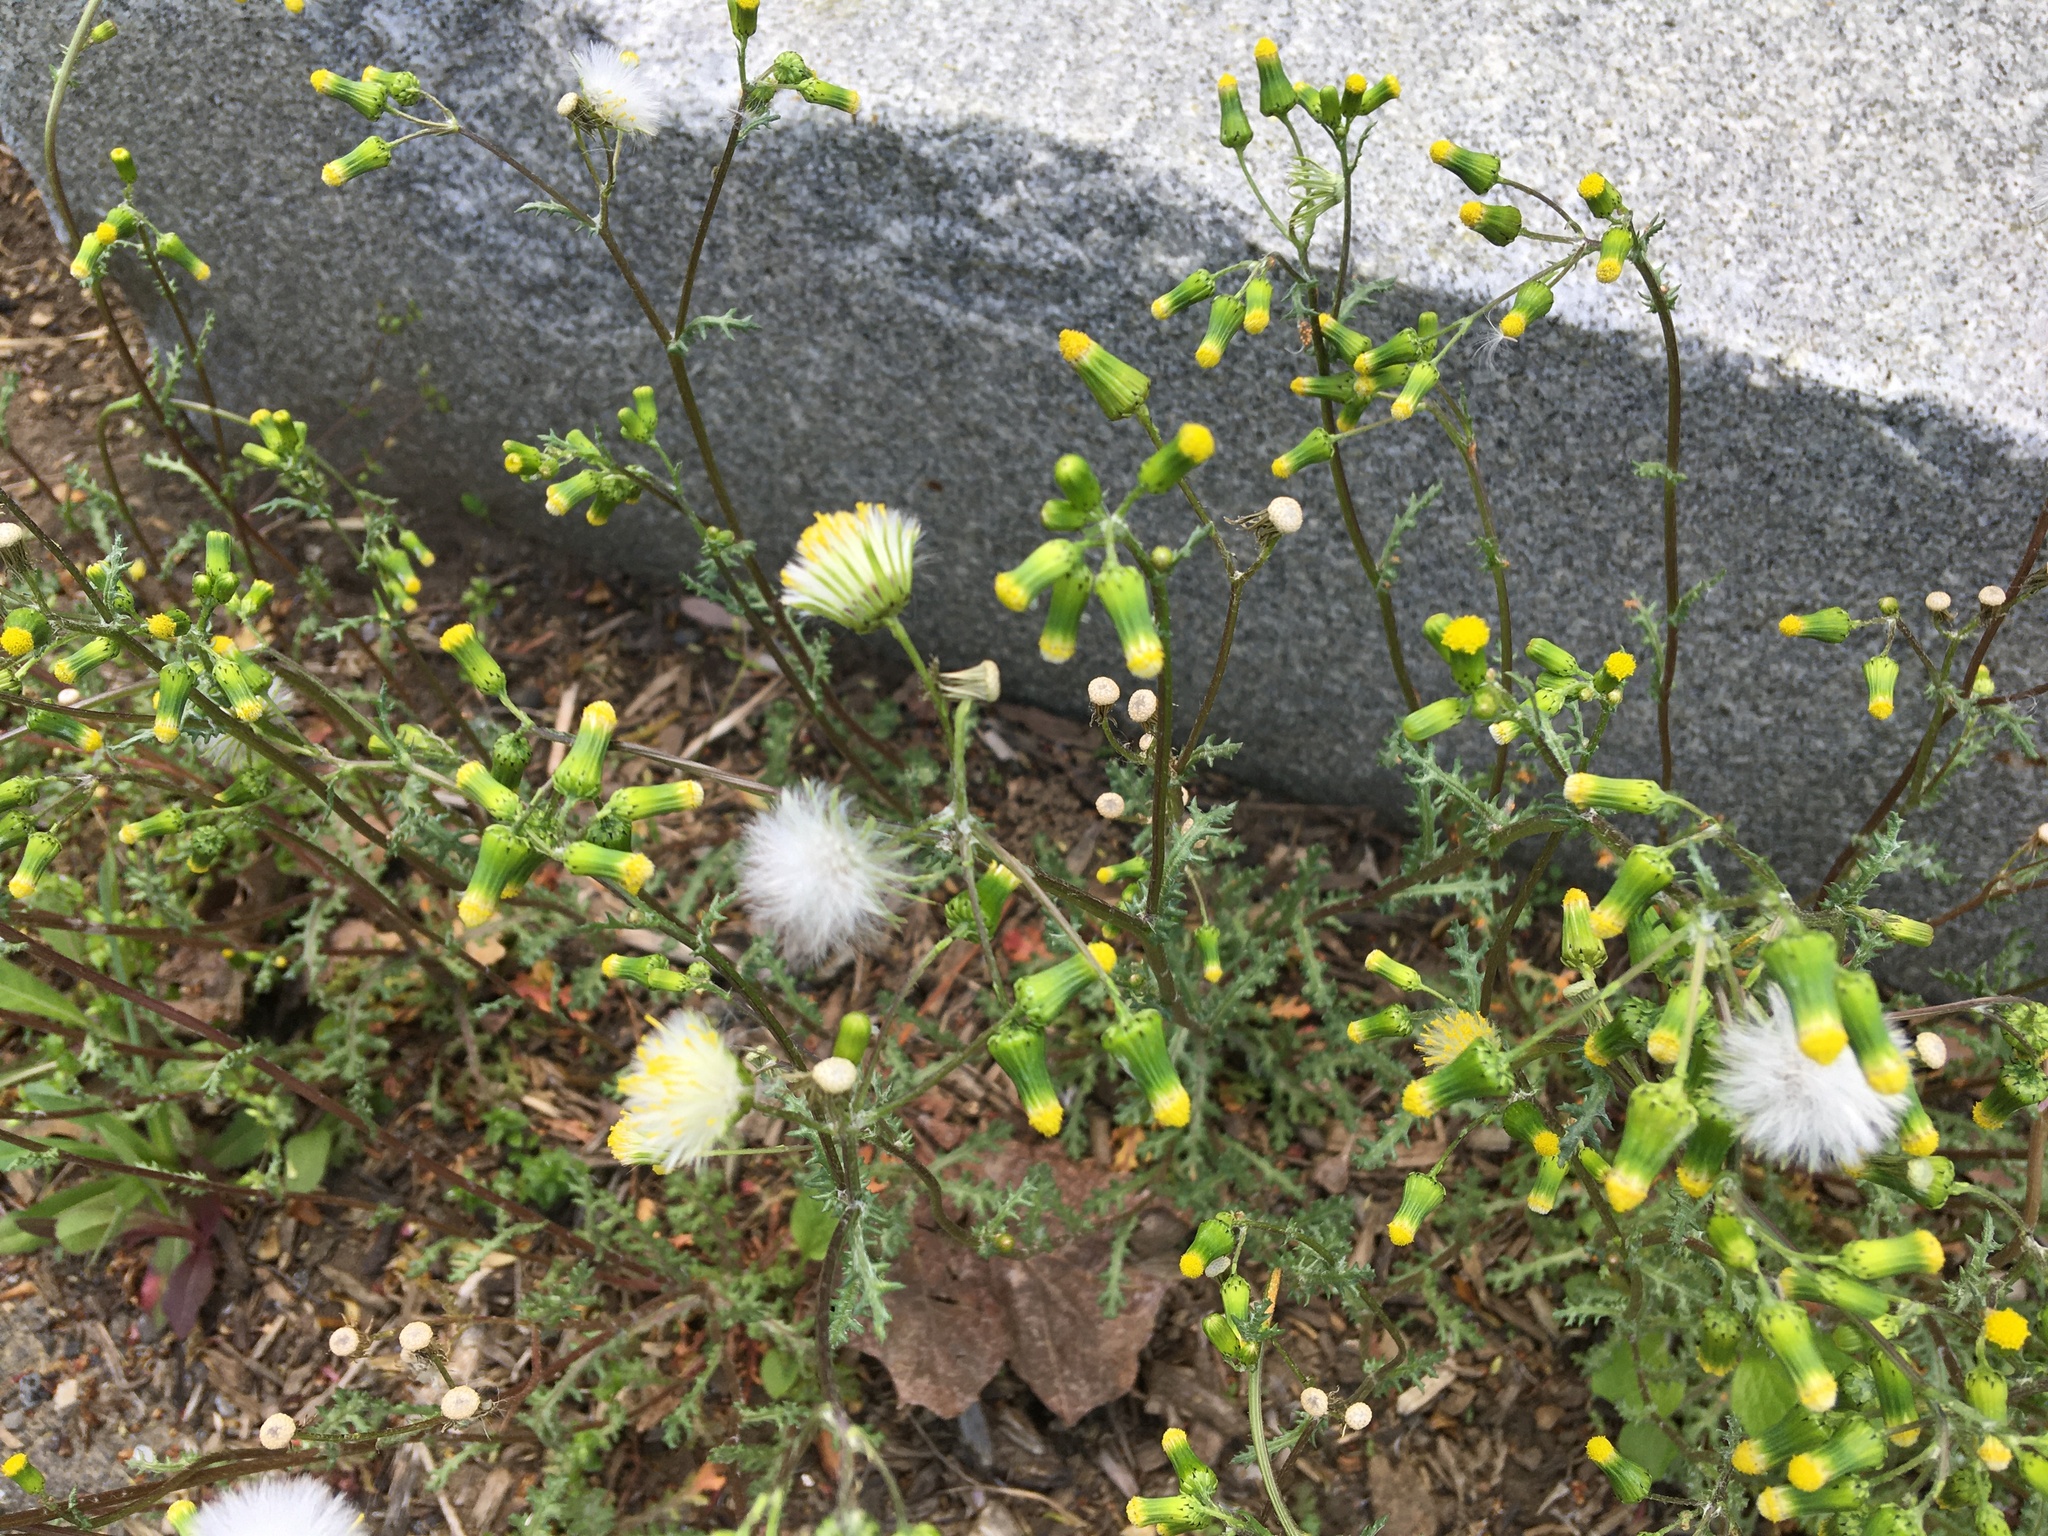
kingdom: Plantae
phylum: Tracheophyta
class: Magnoliopsida
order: Asterales
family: Asteraceae
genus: Senecio
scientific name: Senecio vulgaris
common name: Old-man-in-the-spring
